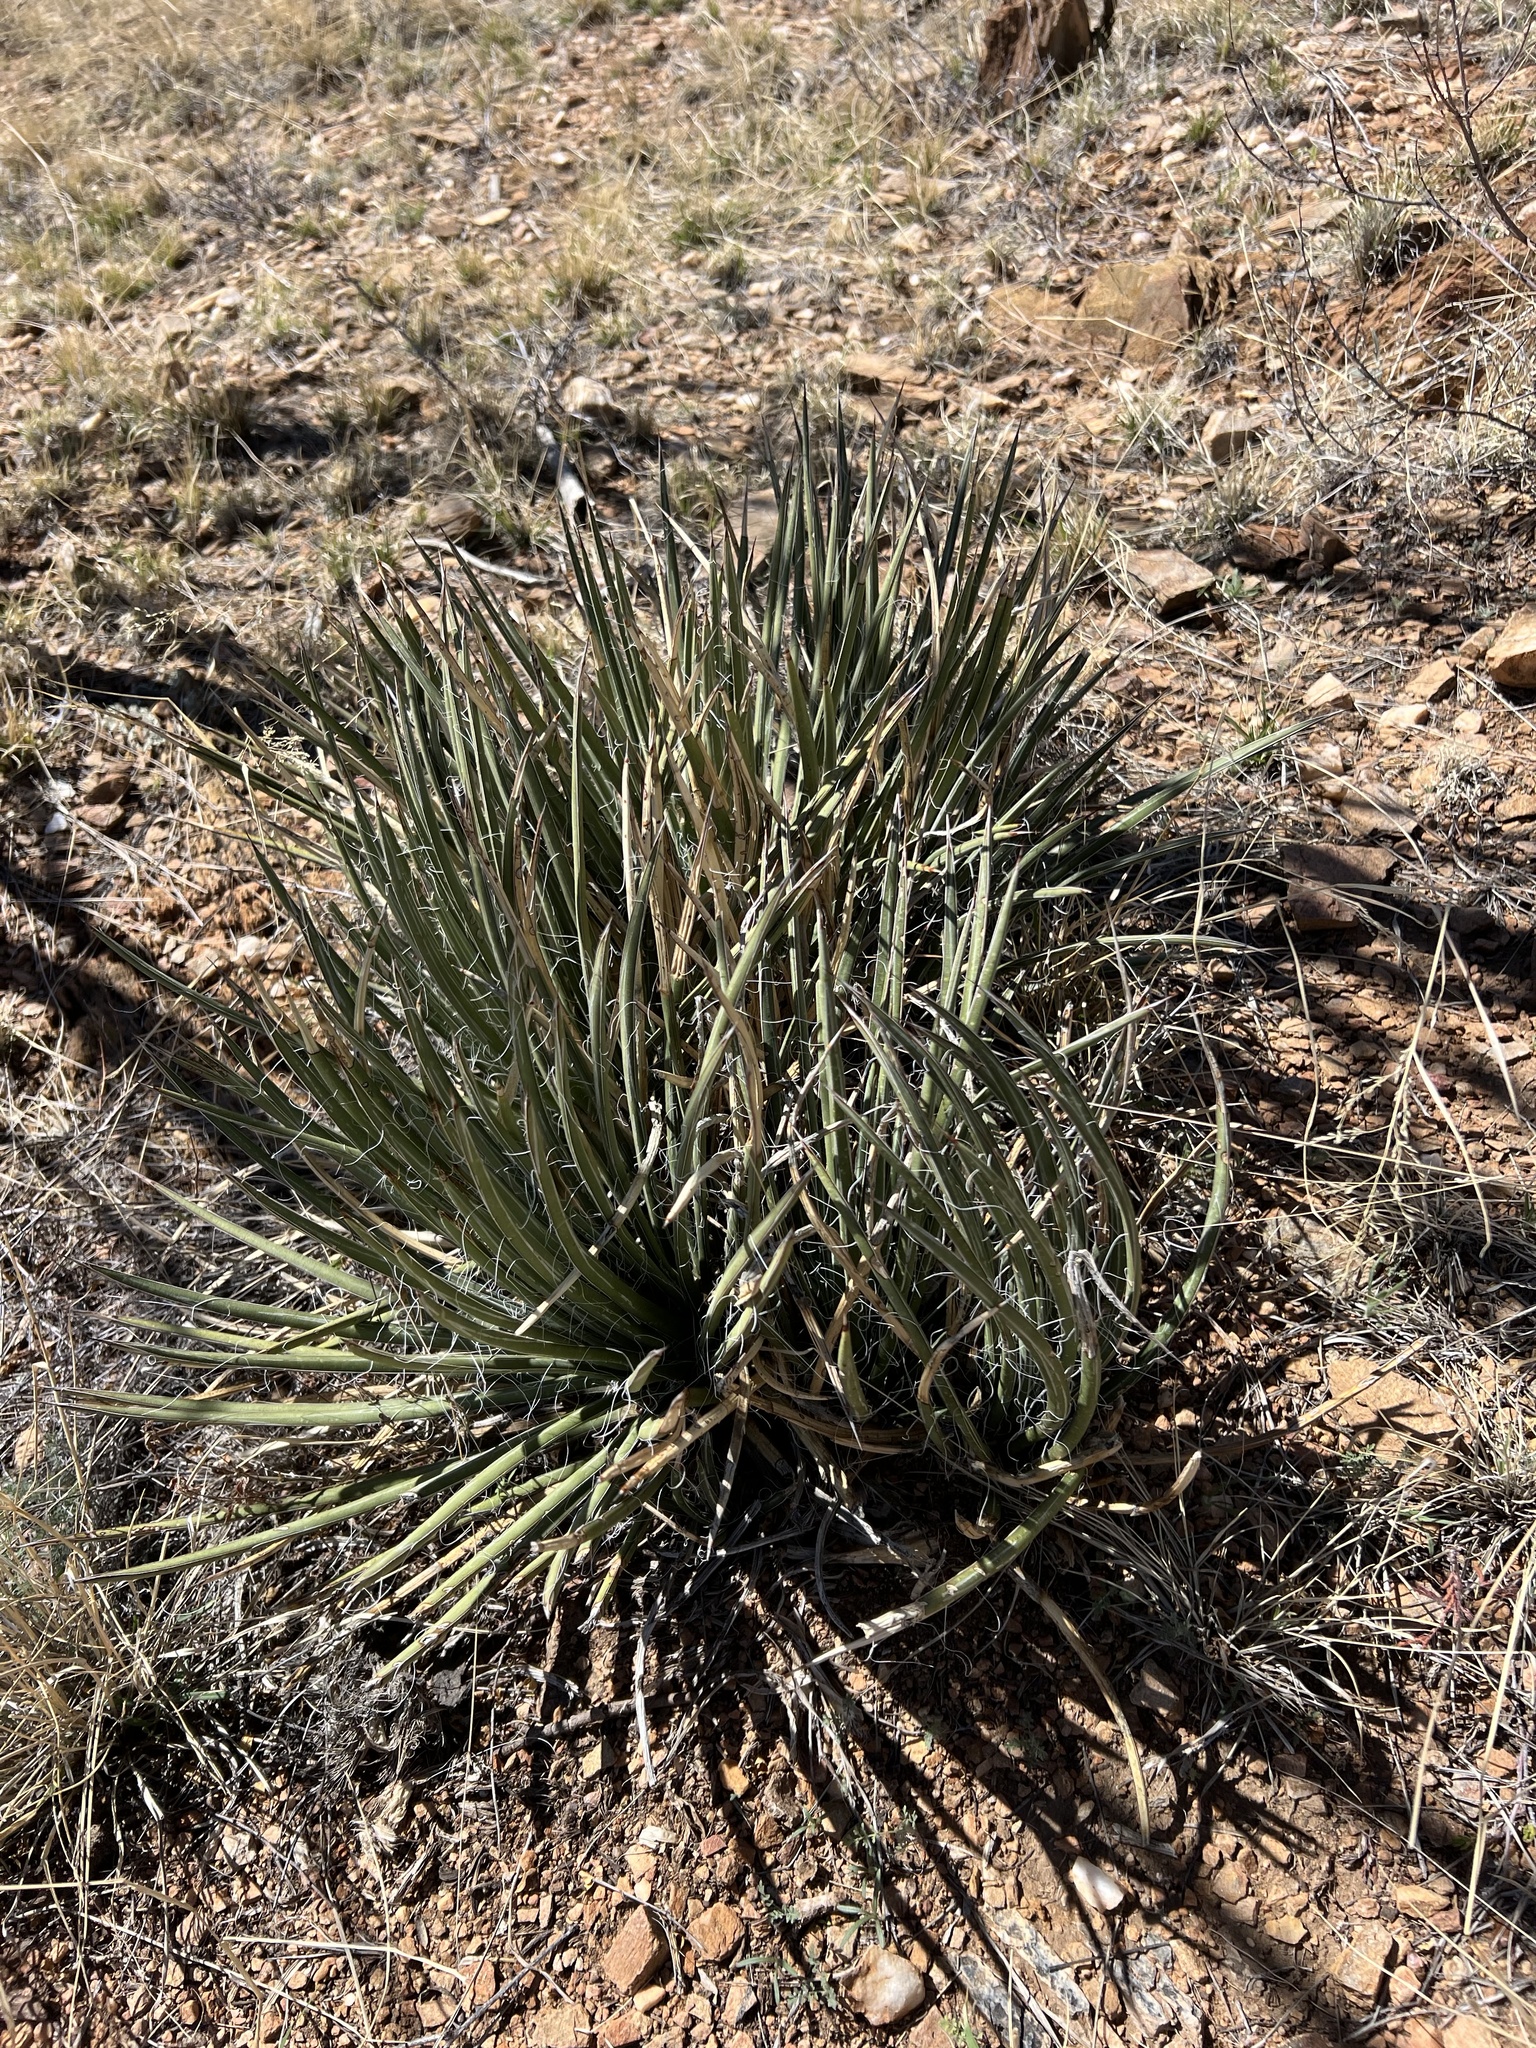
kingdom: Plantae
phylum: Tracheophyta
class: Liliopsida
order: Asparagales
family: Asparagaceae
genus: Agave
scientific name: Agave schottii
